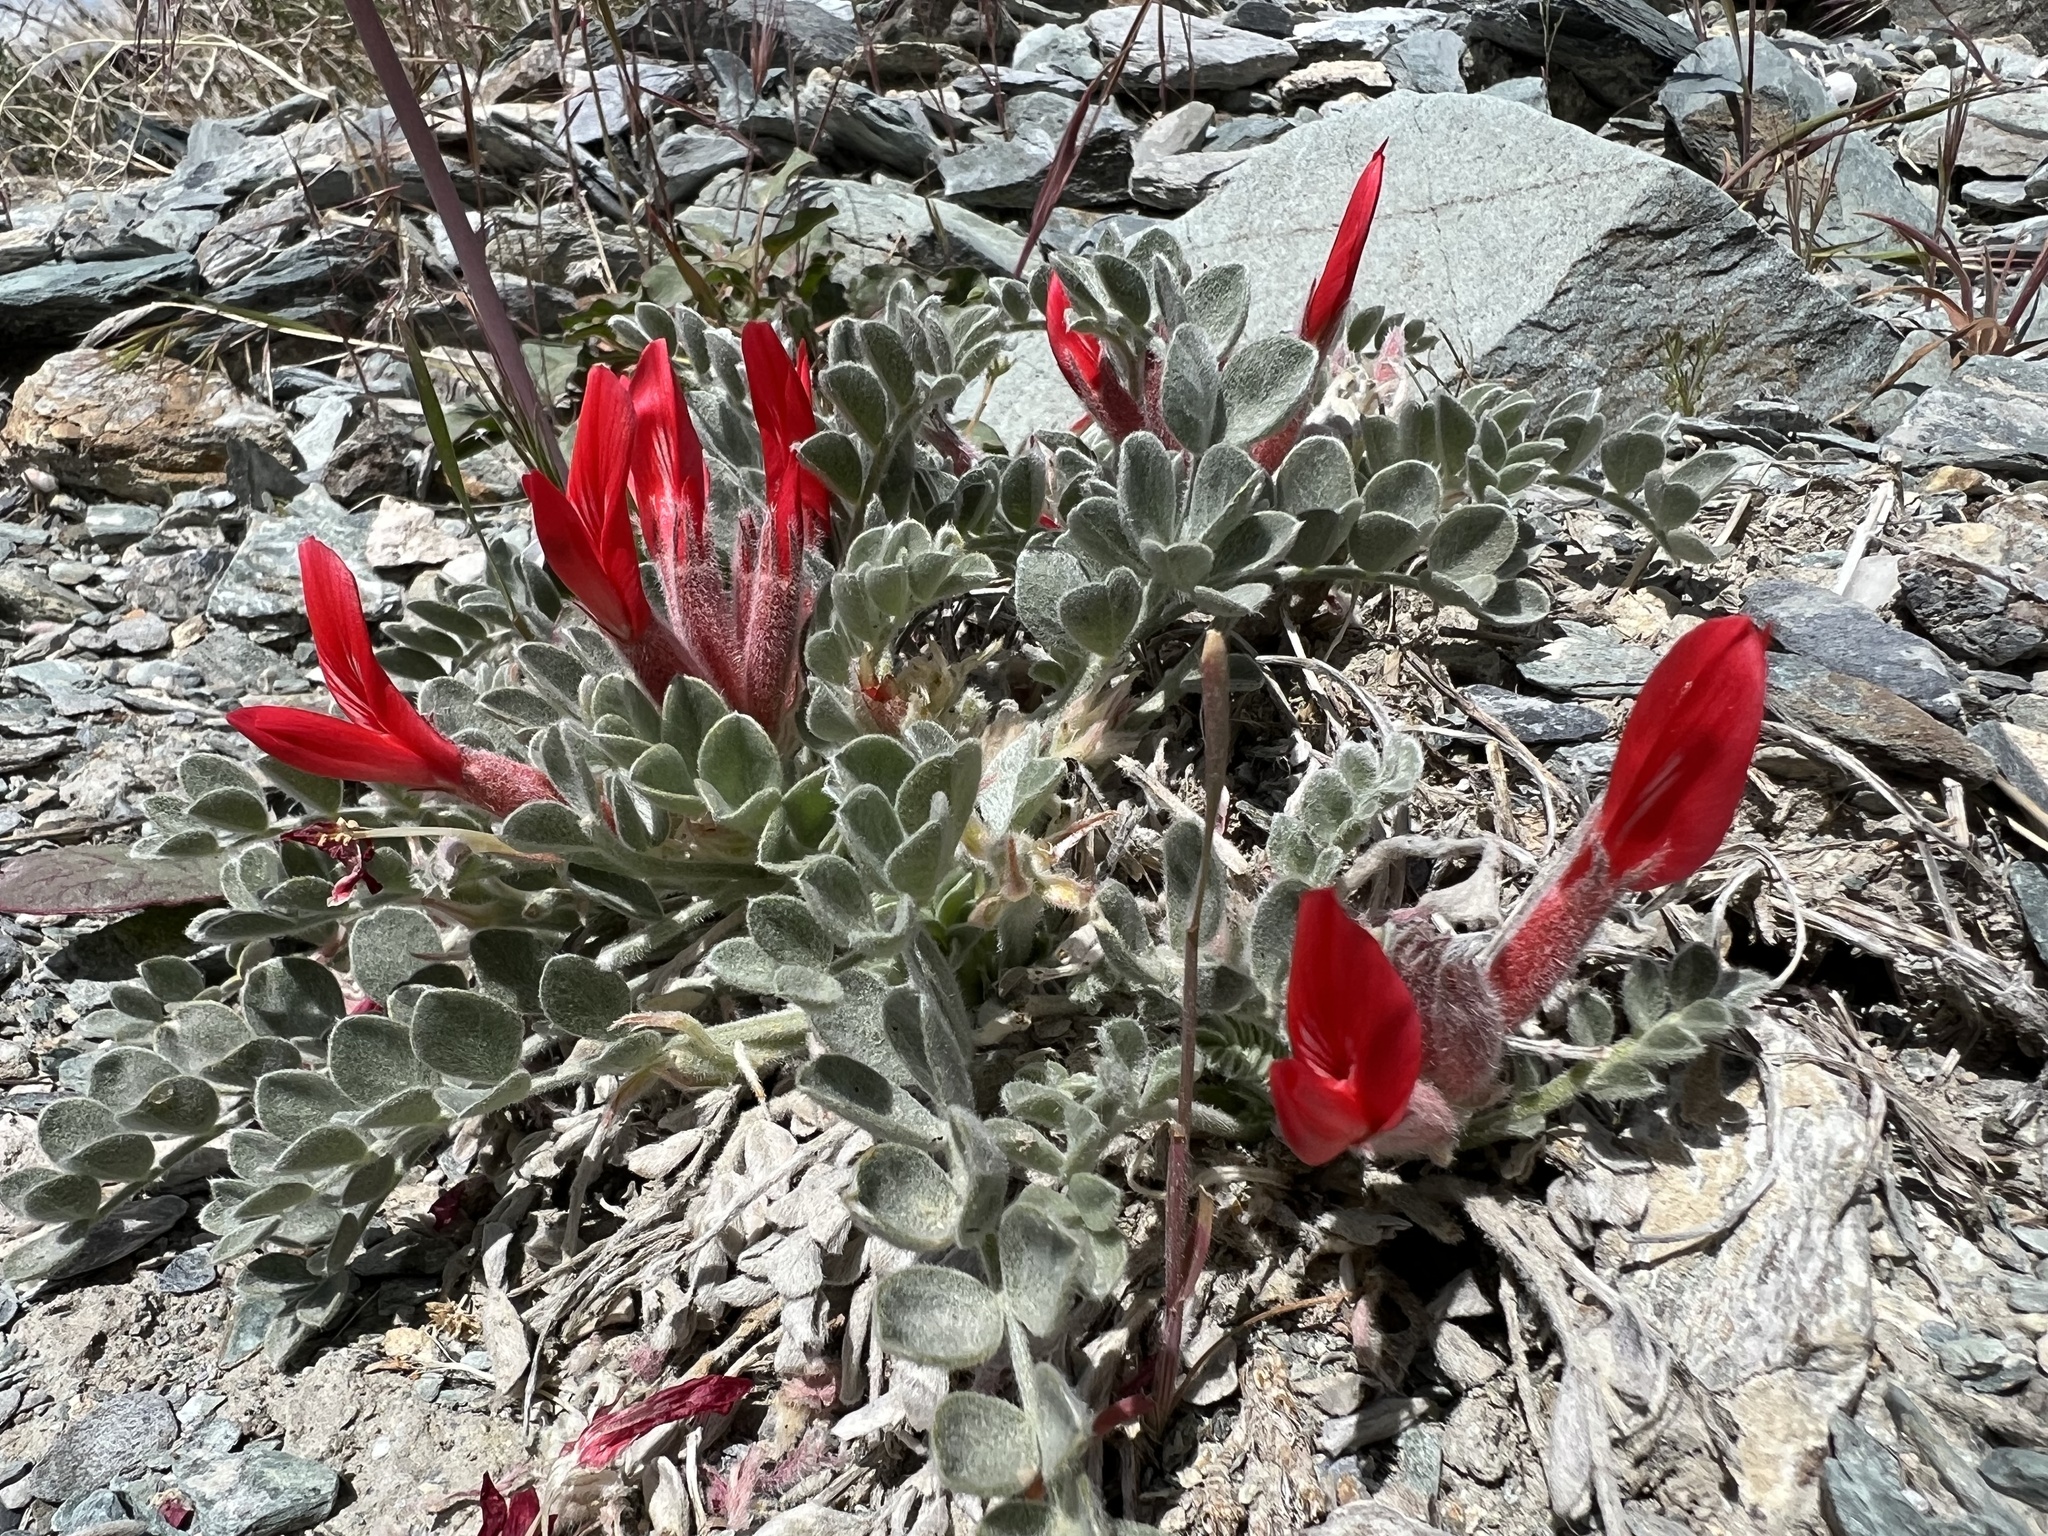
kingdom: Plantae
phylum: Tracheophyta
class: Magnoliopsida
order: Fabales
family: Fabaceae
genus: Astragalus
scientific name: Astragalus coccineus
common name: Scarlet milk-vetch
